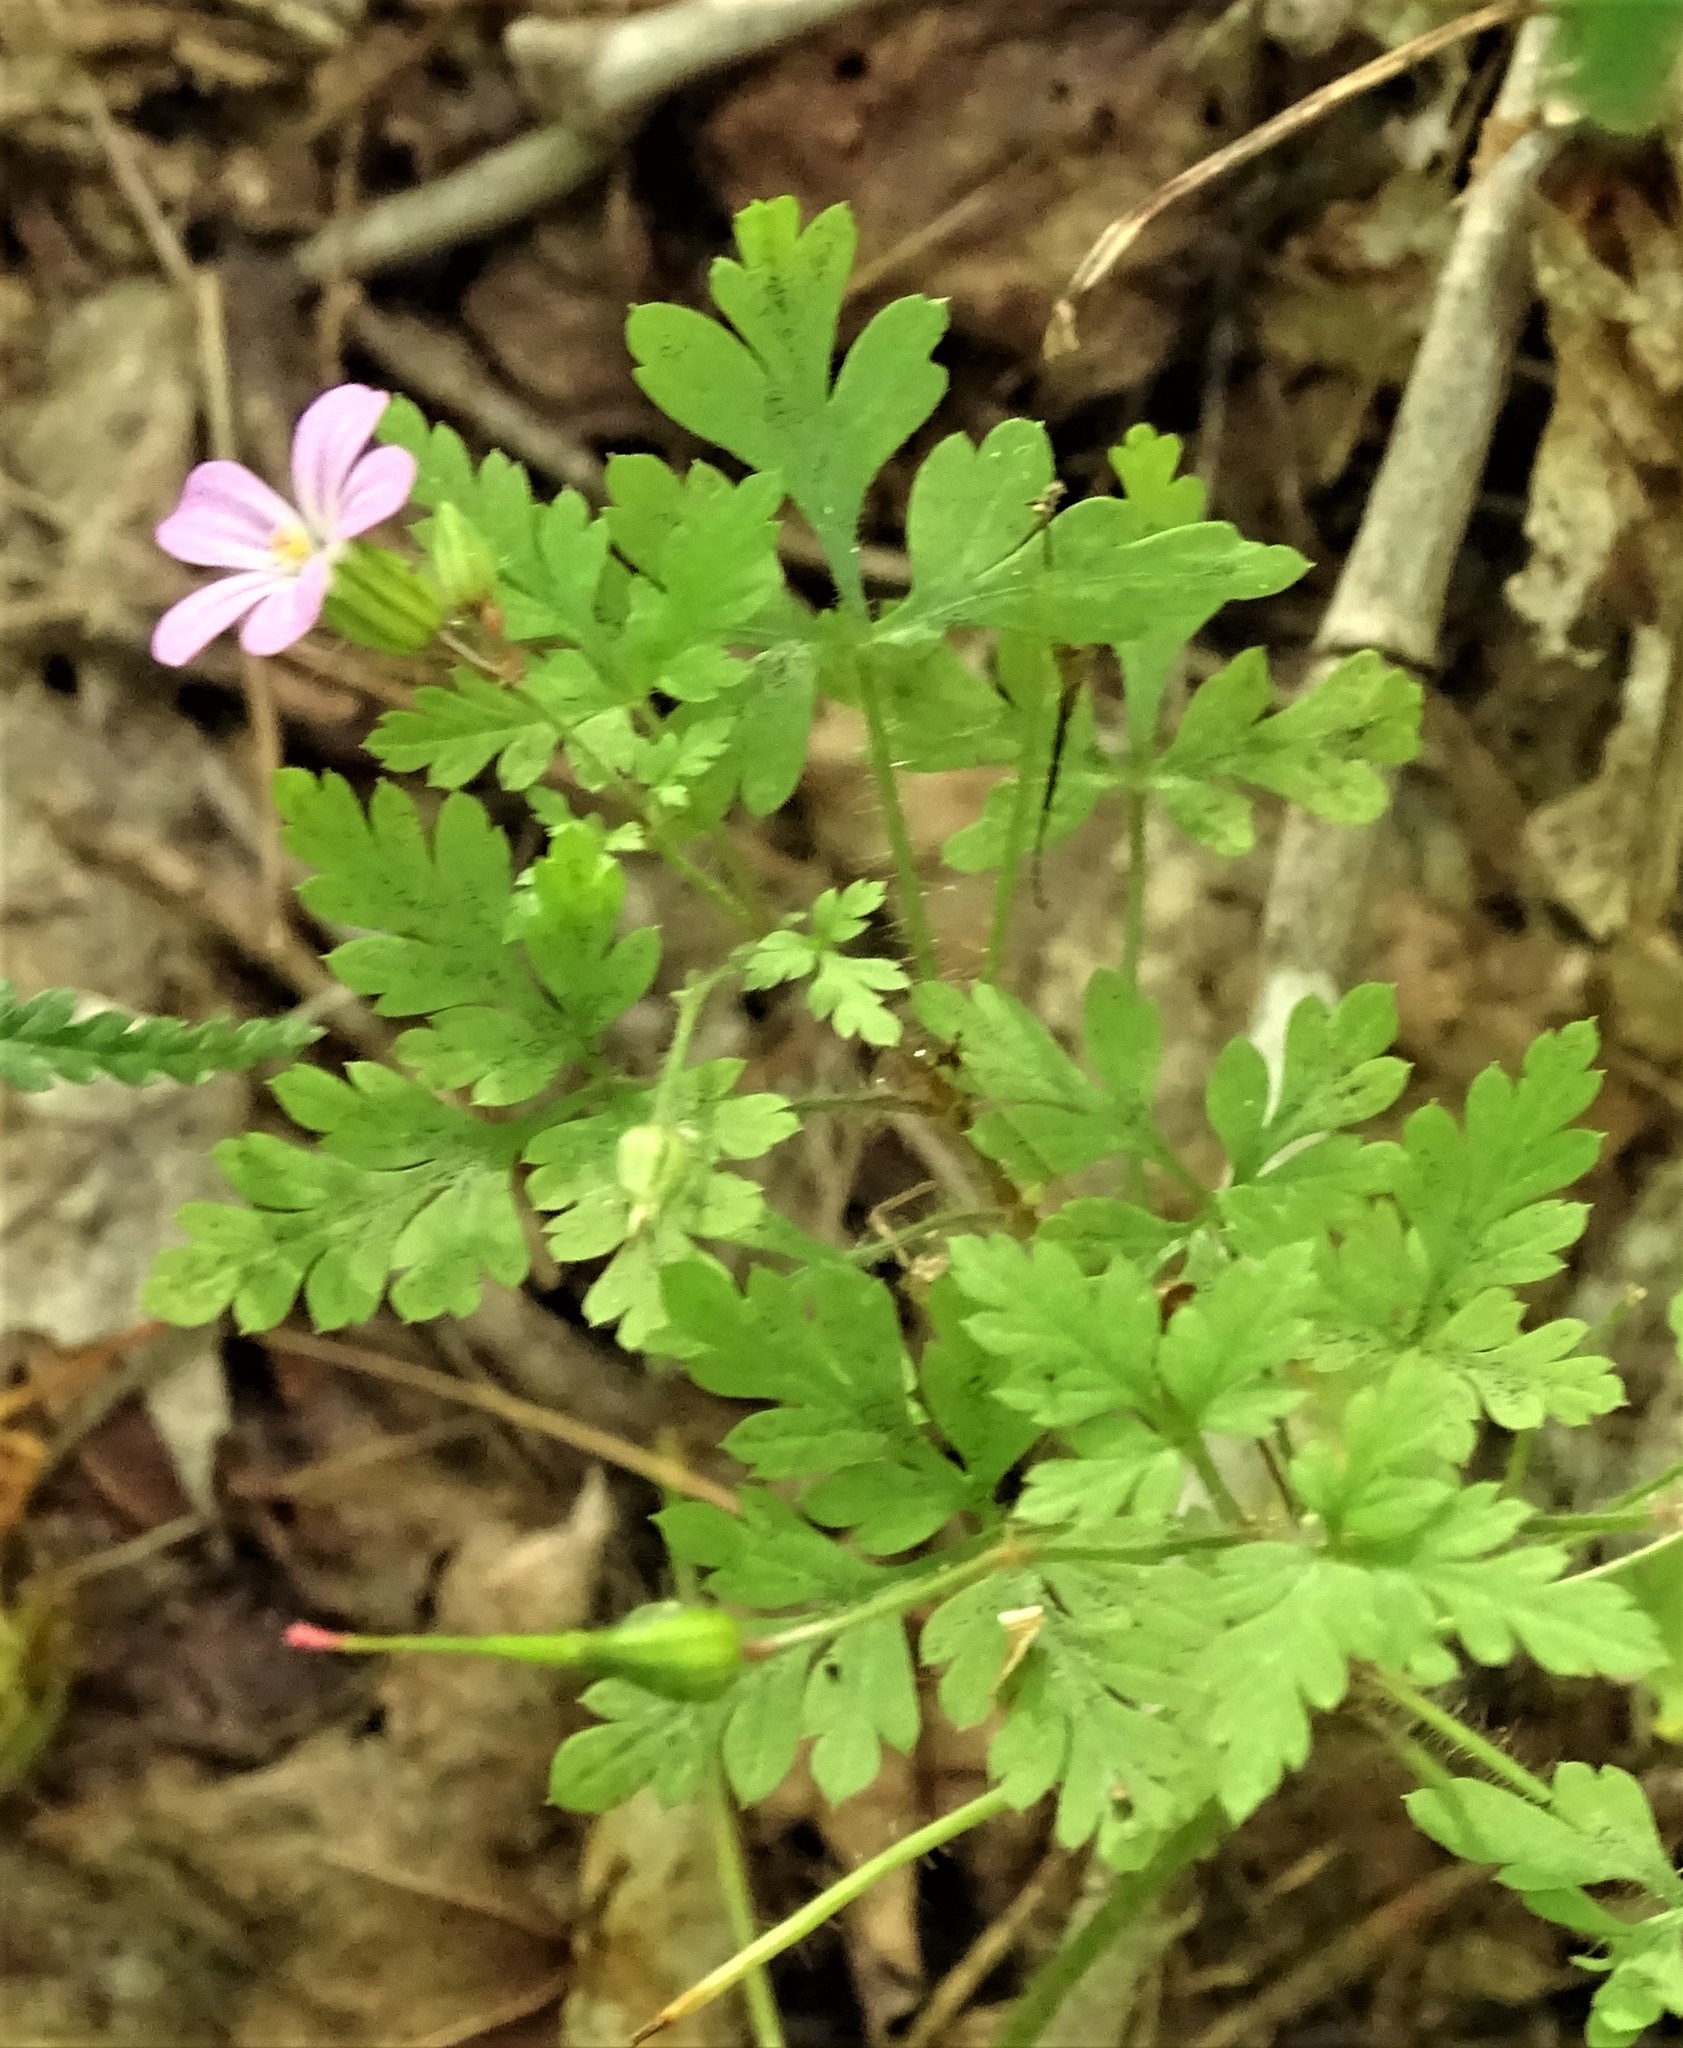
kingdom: Plantae
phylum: Tracheophyta
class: Magnoliopsida
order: Geraniales
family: Geraniaceae
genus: Geranium
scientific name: Geranium robertianum
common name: Herb-robert
